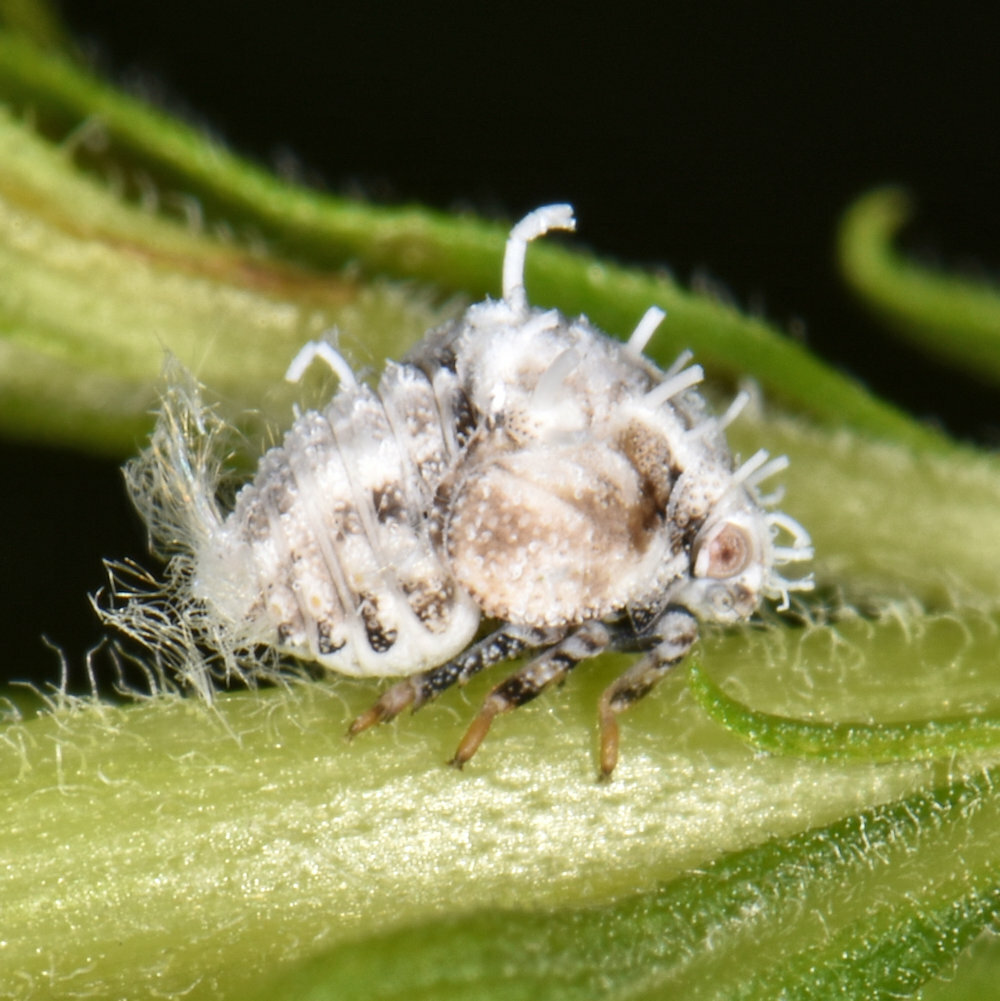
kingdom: Animalia
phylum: Arthropoda
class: Insecta
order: Hemiptera
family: Acanaloniidae
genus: Acanalonia
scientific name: Acanalonia bivittata
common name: Two-striped planthopper
